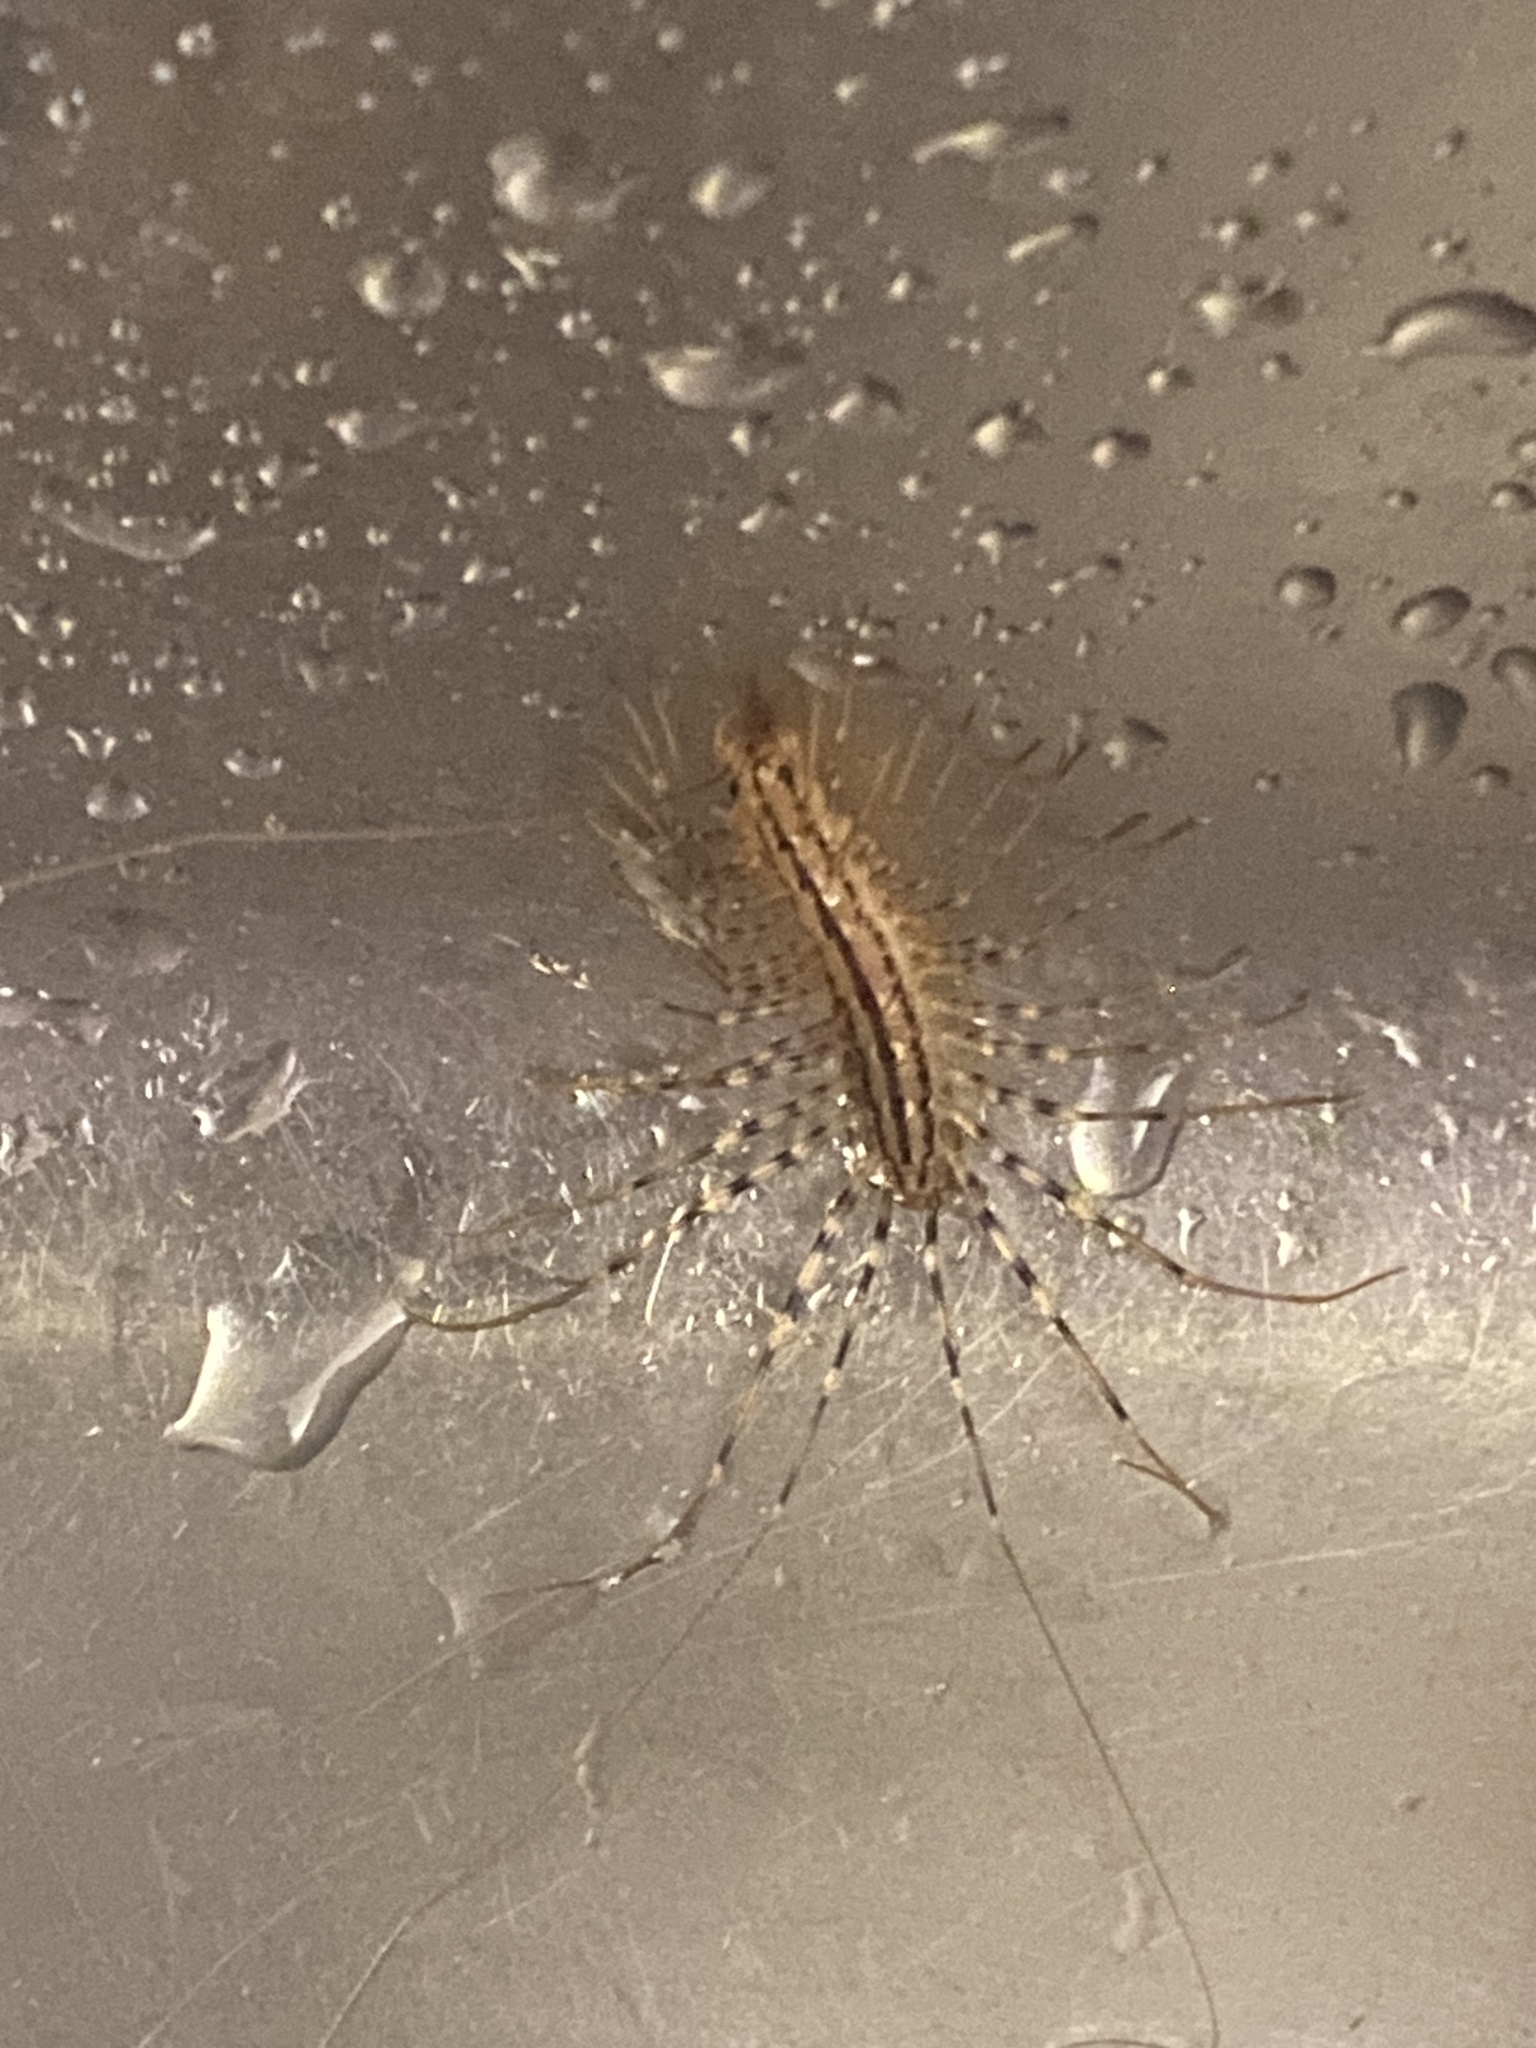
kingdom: Animalia
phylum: Arthropoda
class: Chilopoda
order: Scutigeromorpha
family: Scutigeridae
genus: Scutigera
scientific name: Scutigera coleoptrata
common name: House centipede
